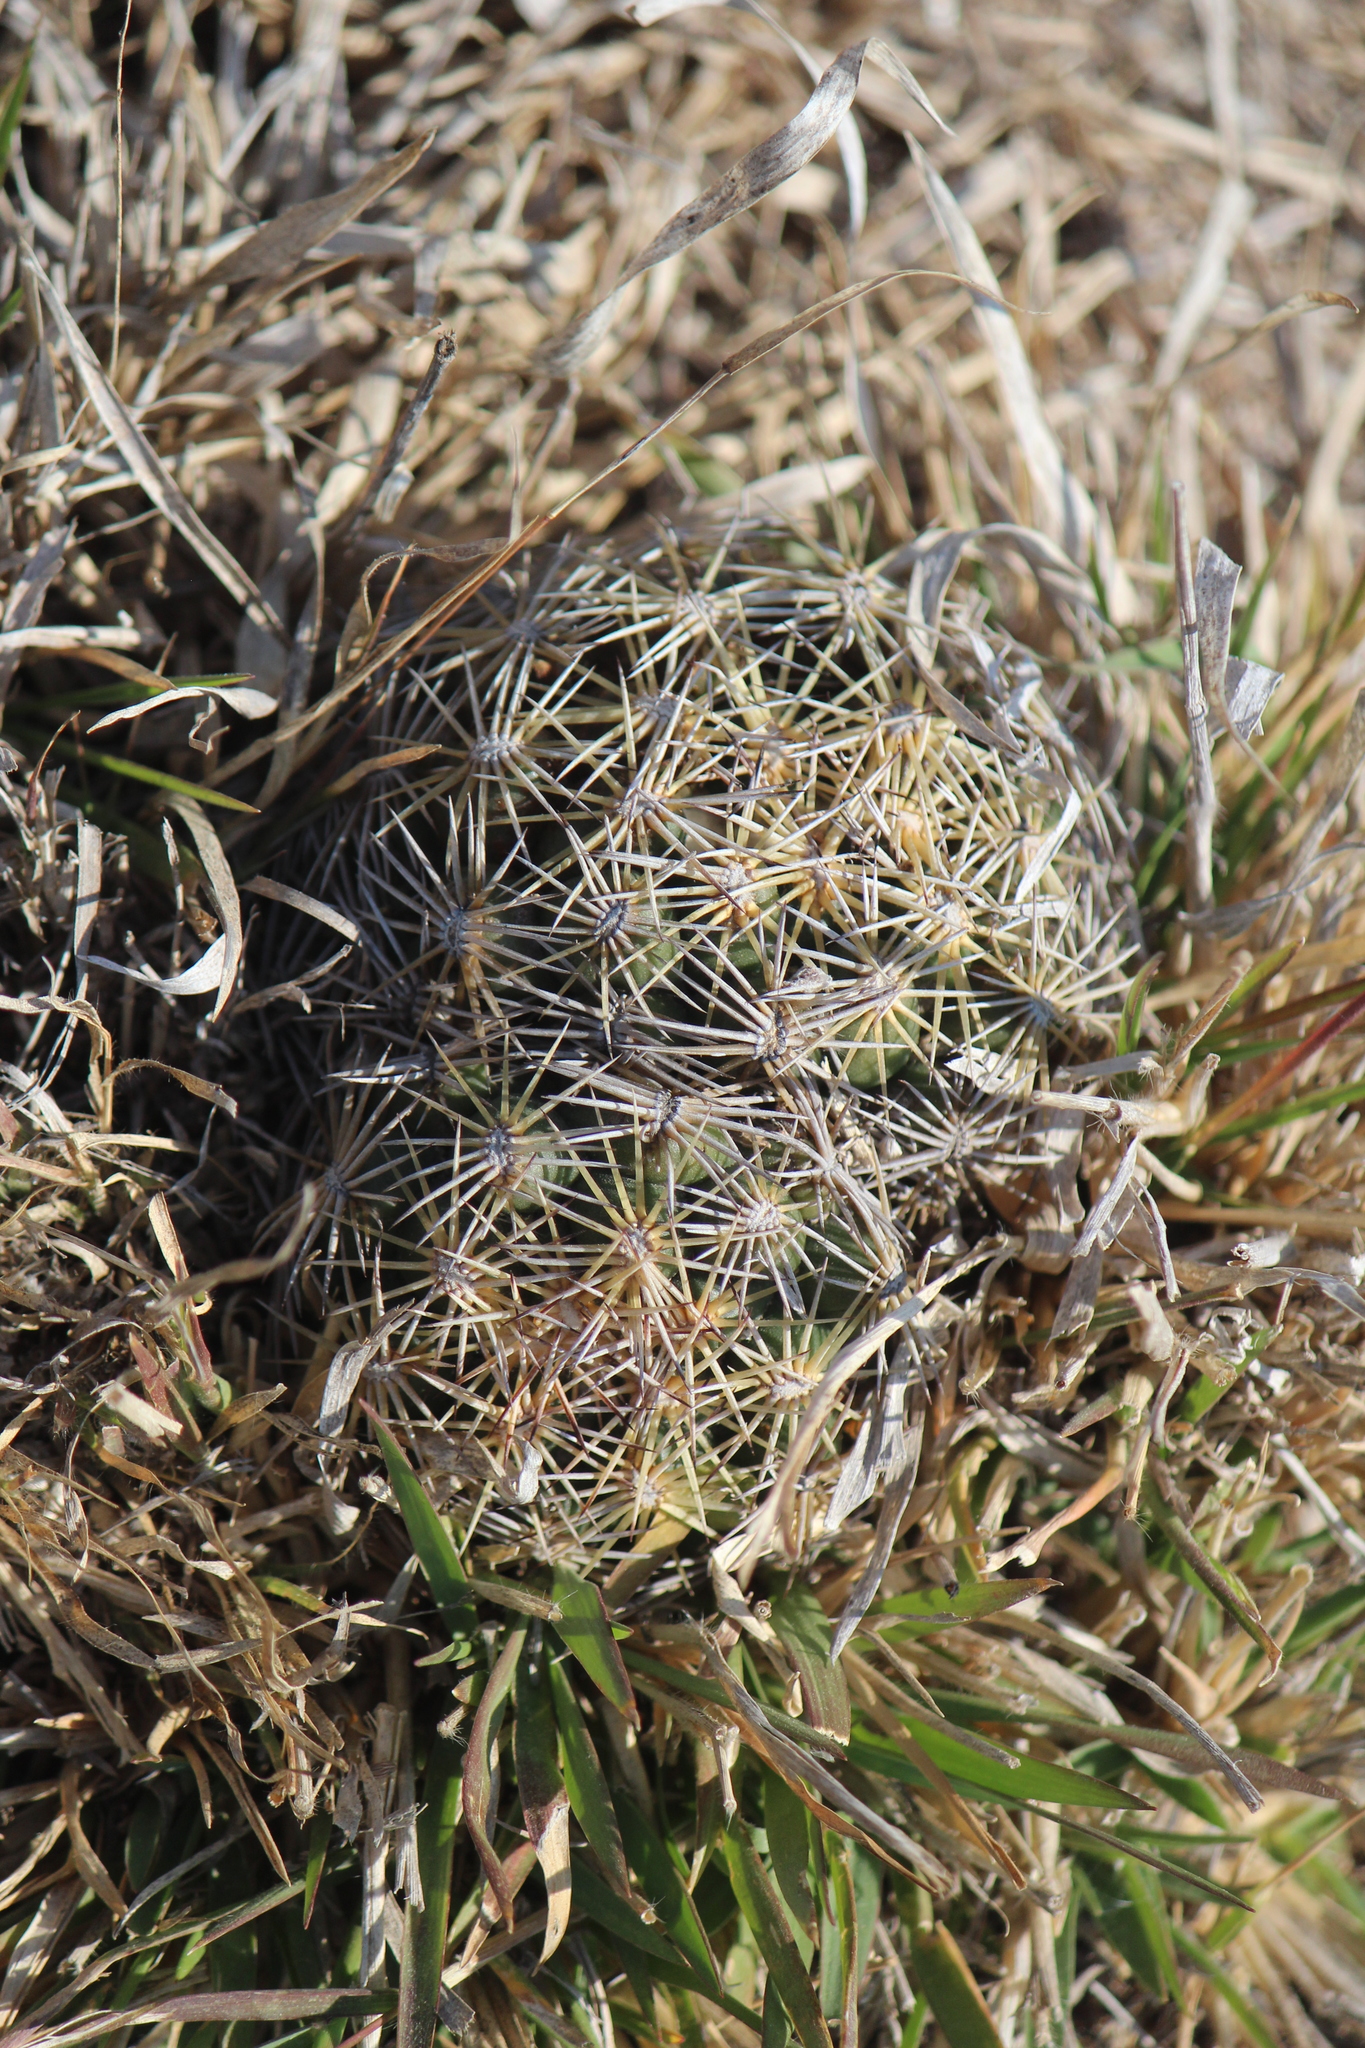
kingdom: Plantae
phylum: Tracheophyta
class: Magnoliopsida
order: Caryophyllales
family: Cactaceae
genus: Coryphantha
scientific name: Coryphantha cornifera
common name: Rhinoceros cactus
